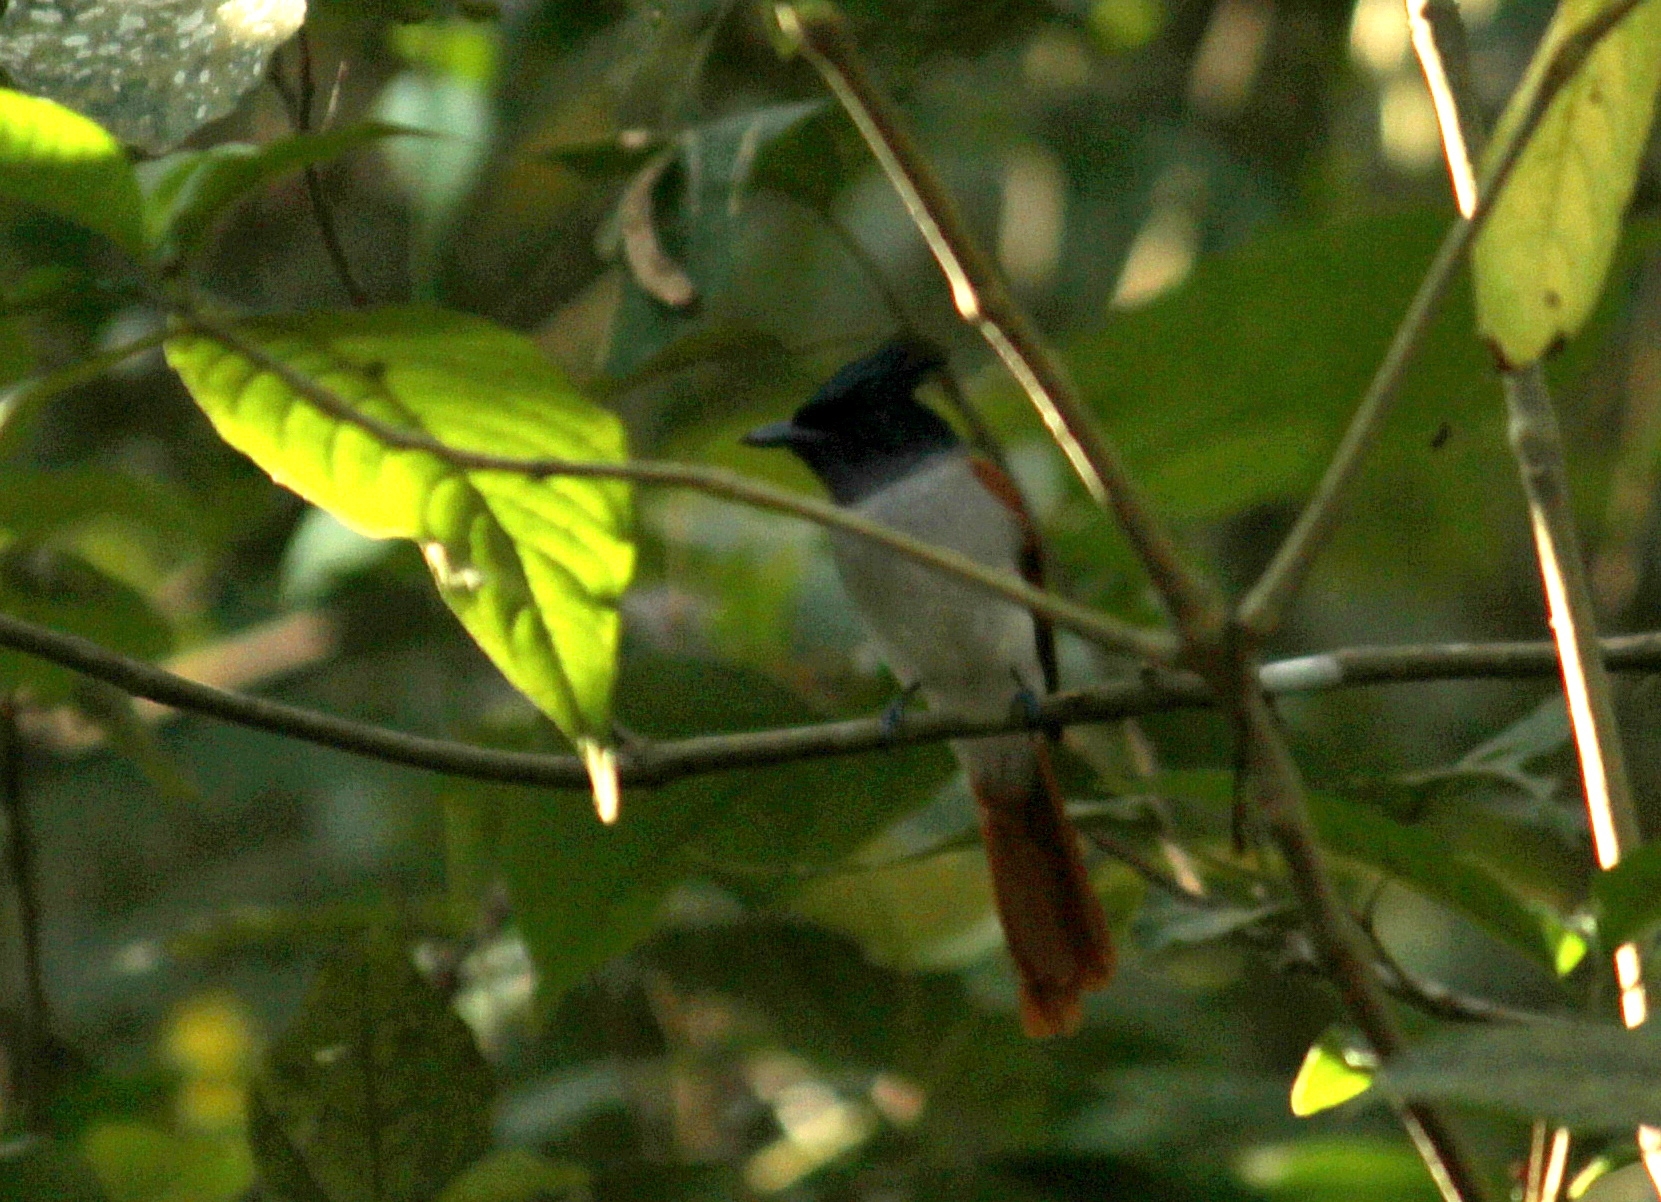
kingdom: Animalia
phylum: Chordata
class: Aves
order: Passeriformes
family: Monarchidae
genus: Terpsiphone
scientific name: Terpsiphone paradisi
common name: Indian paradise flycatcher
